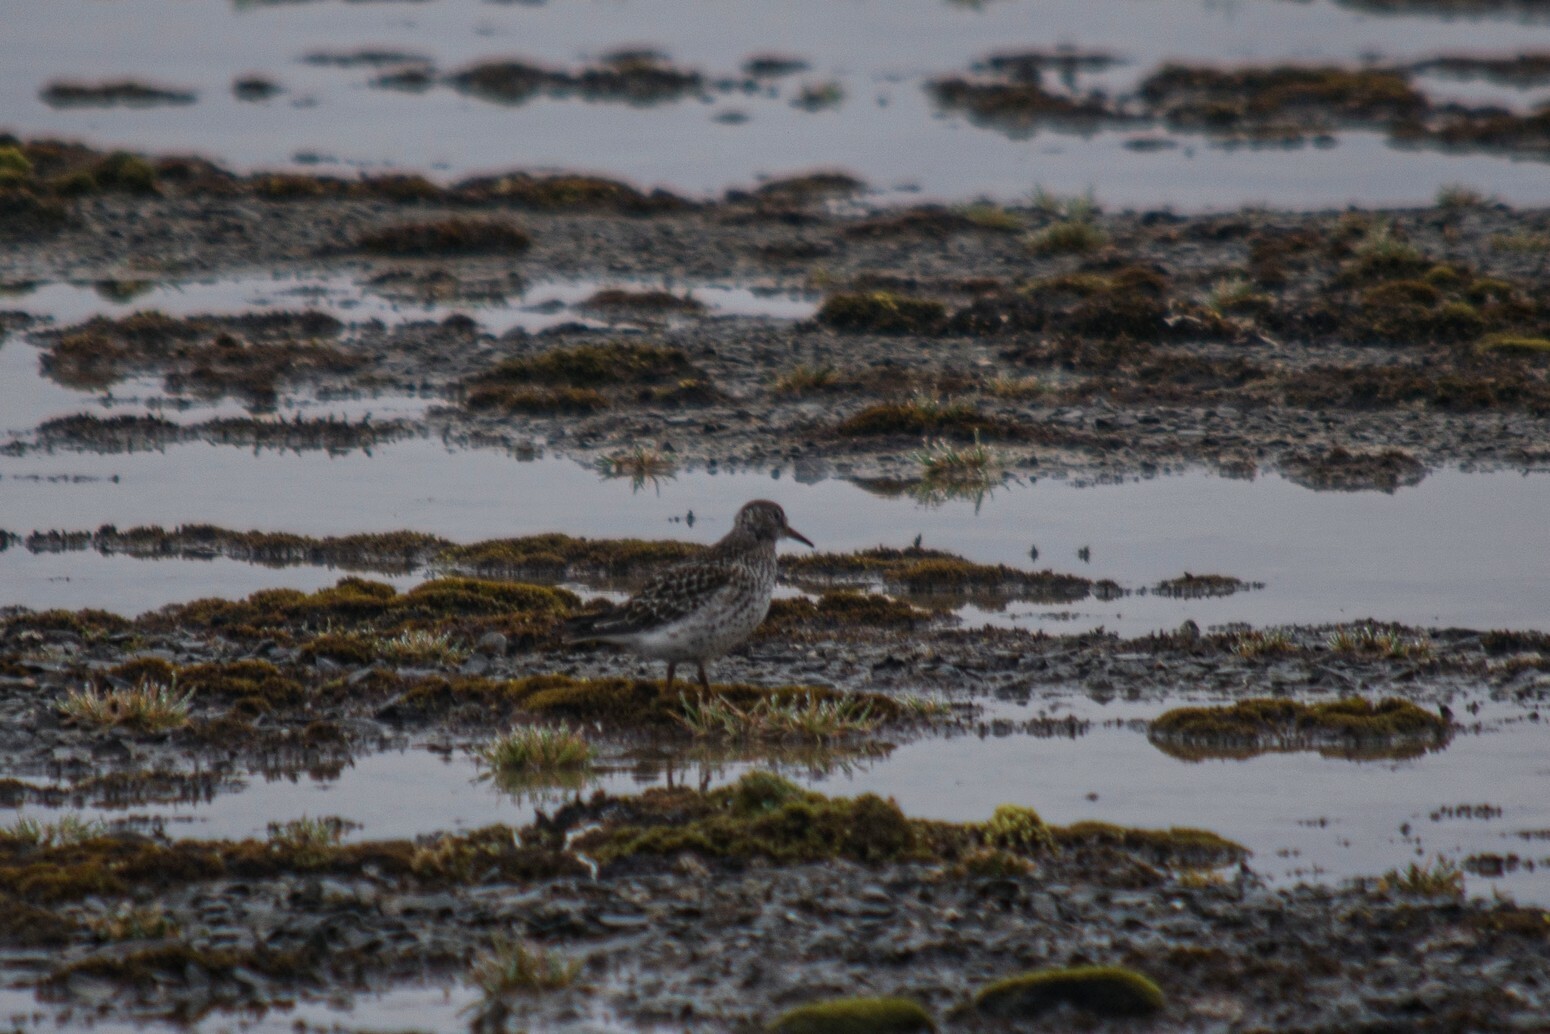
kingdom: Animalia
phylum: Chordata
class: Aves
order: Charadriiformes
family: Scolopacidae
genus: Calidris
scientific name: Calidris maritima
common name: Purple sandpiper
